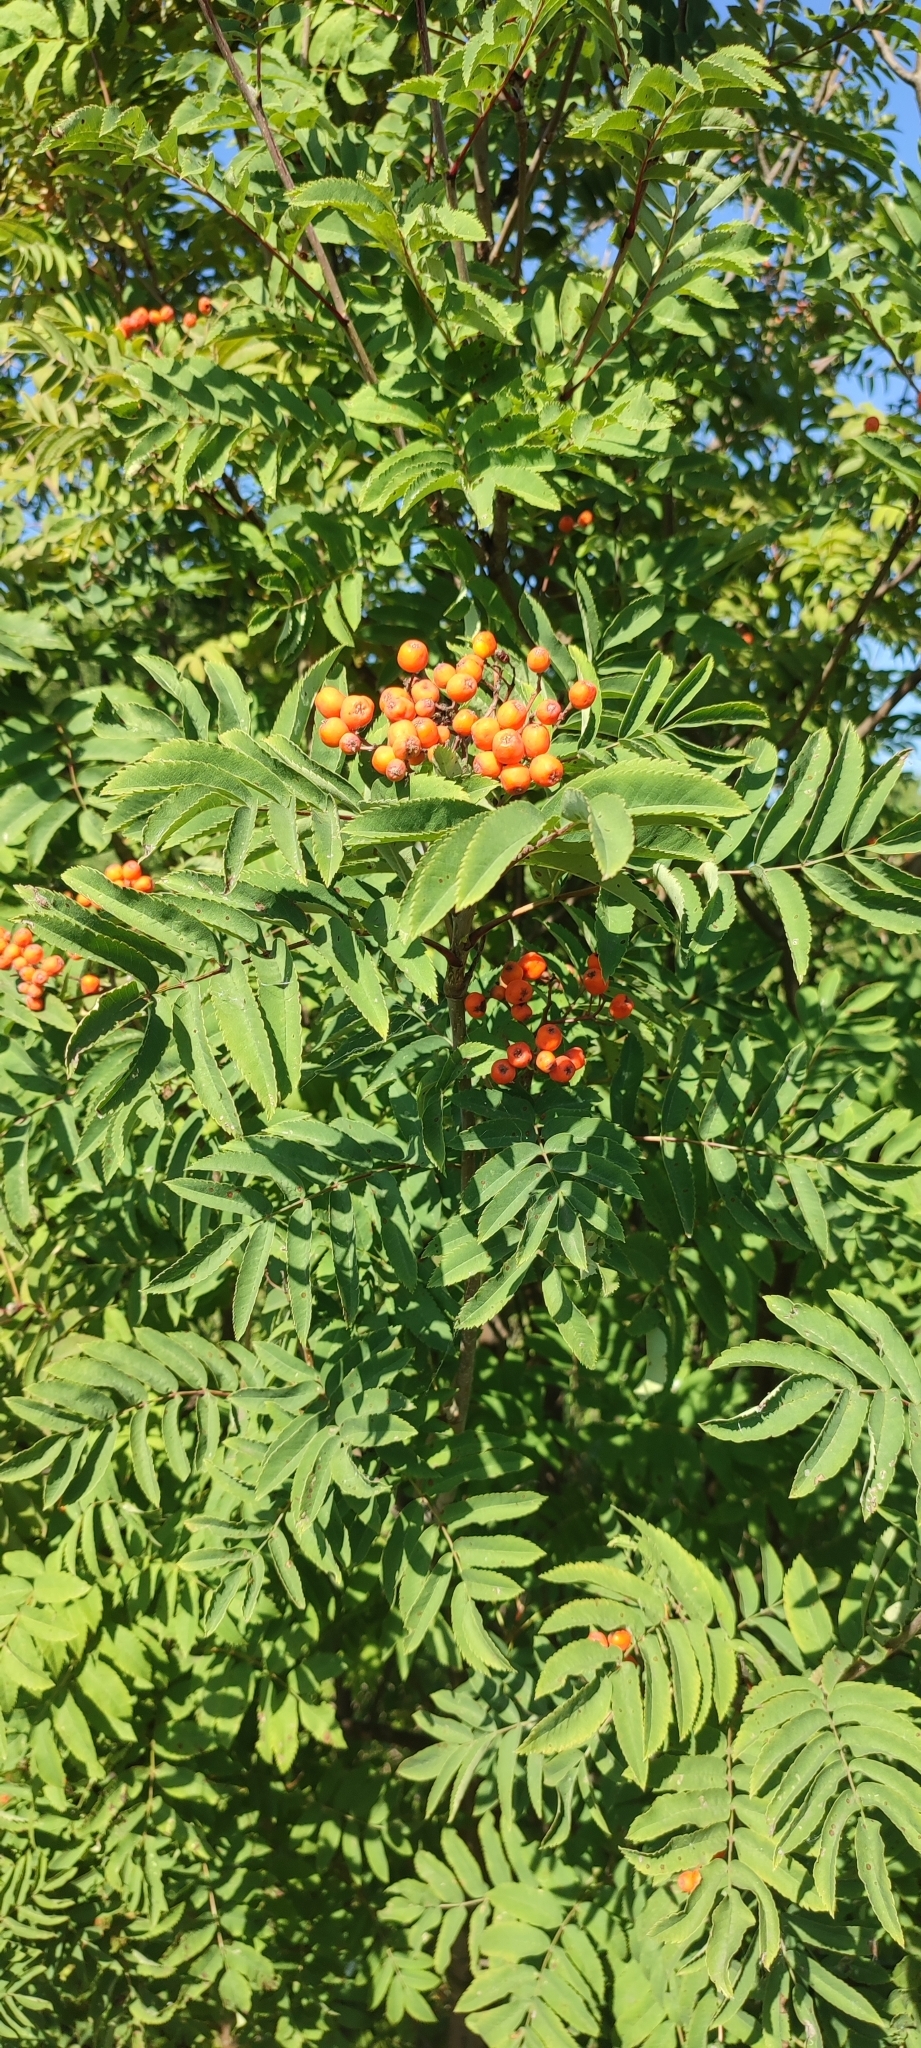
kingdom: Plantae
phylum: Tracheophyta
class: Magnoliopsida
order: Rosales
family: Rosaceae
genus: Sorbus
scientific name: Sorbus aucuparia
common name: Rowan
